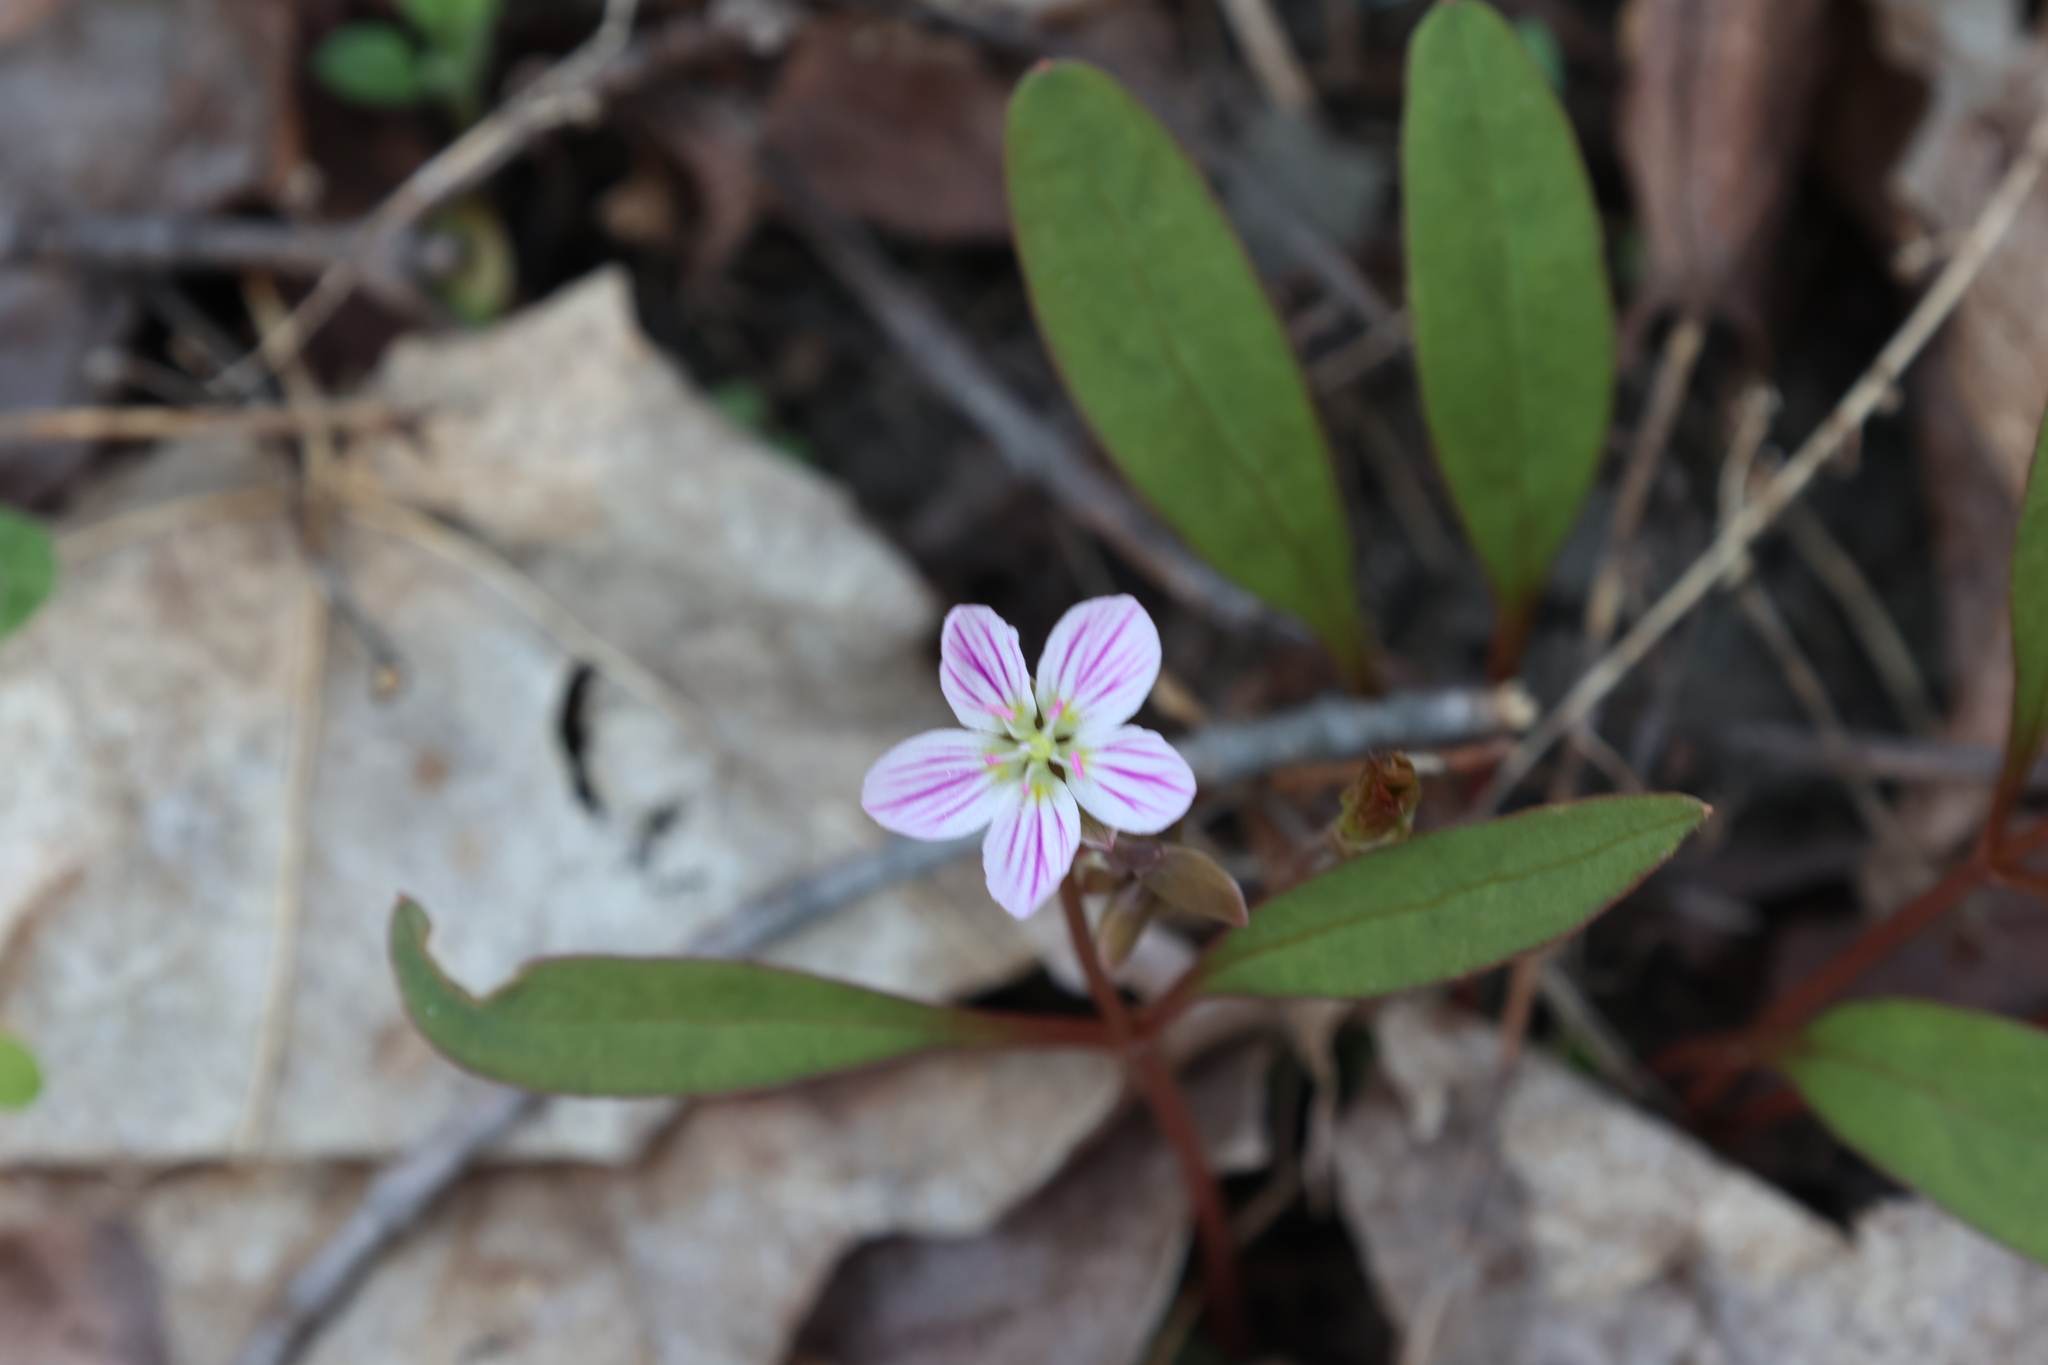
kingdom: Plantae
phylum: Tracheophyta
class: Magnoliopsida
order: Caryophyllales
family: Montiaceae
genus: Claytonia
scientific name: Claytonia caroliniana
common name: Carolina spring beauty
